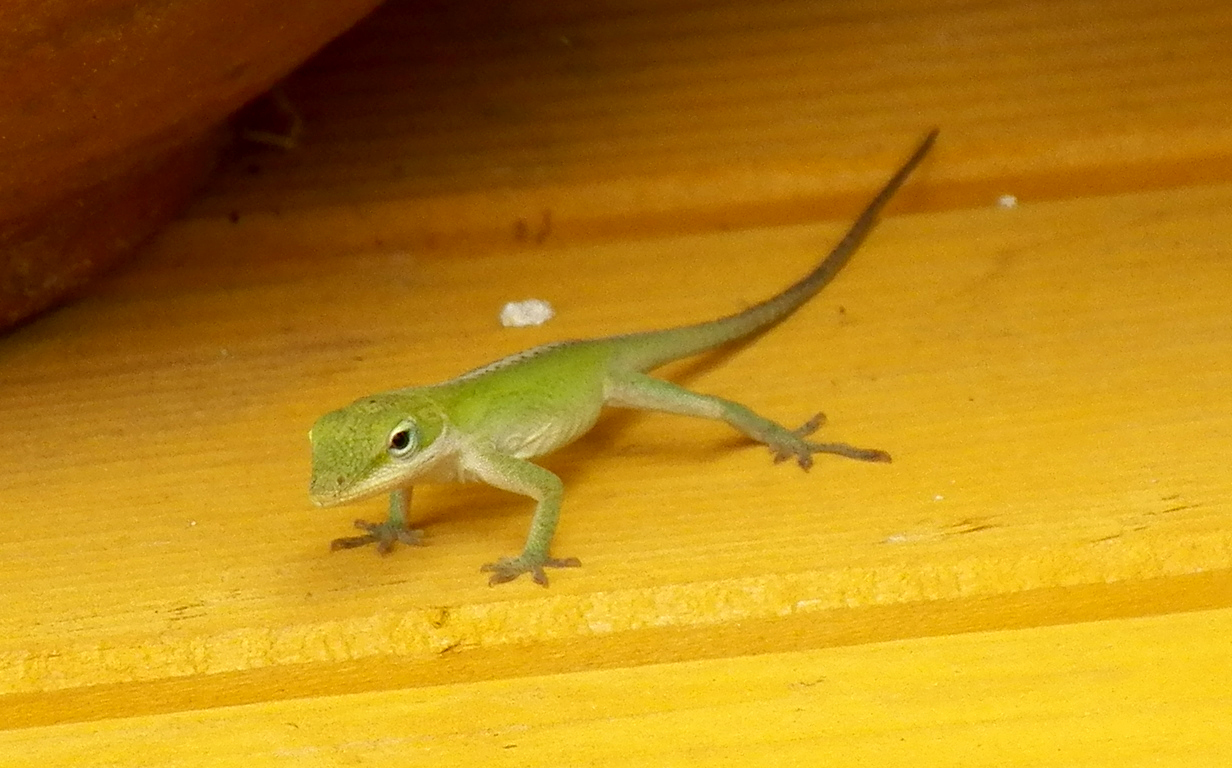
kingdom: Animalia
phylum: Chordata
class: Squamata
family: Dactyloidae
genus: Anolis
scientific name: Anolis carolinensis
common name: Green anole
